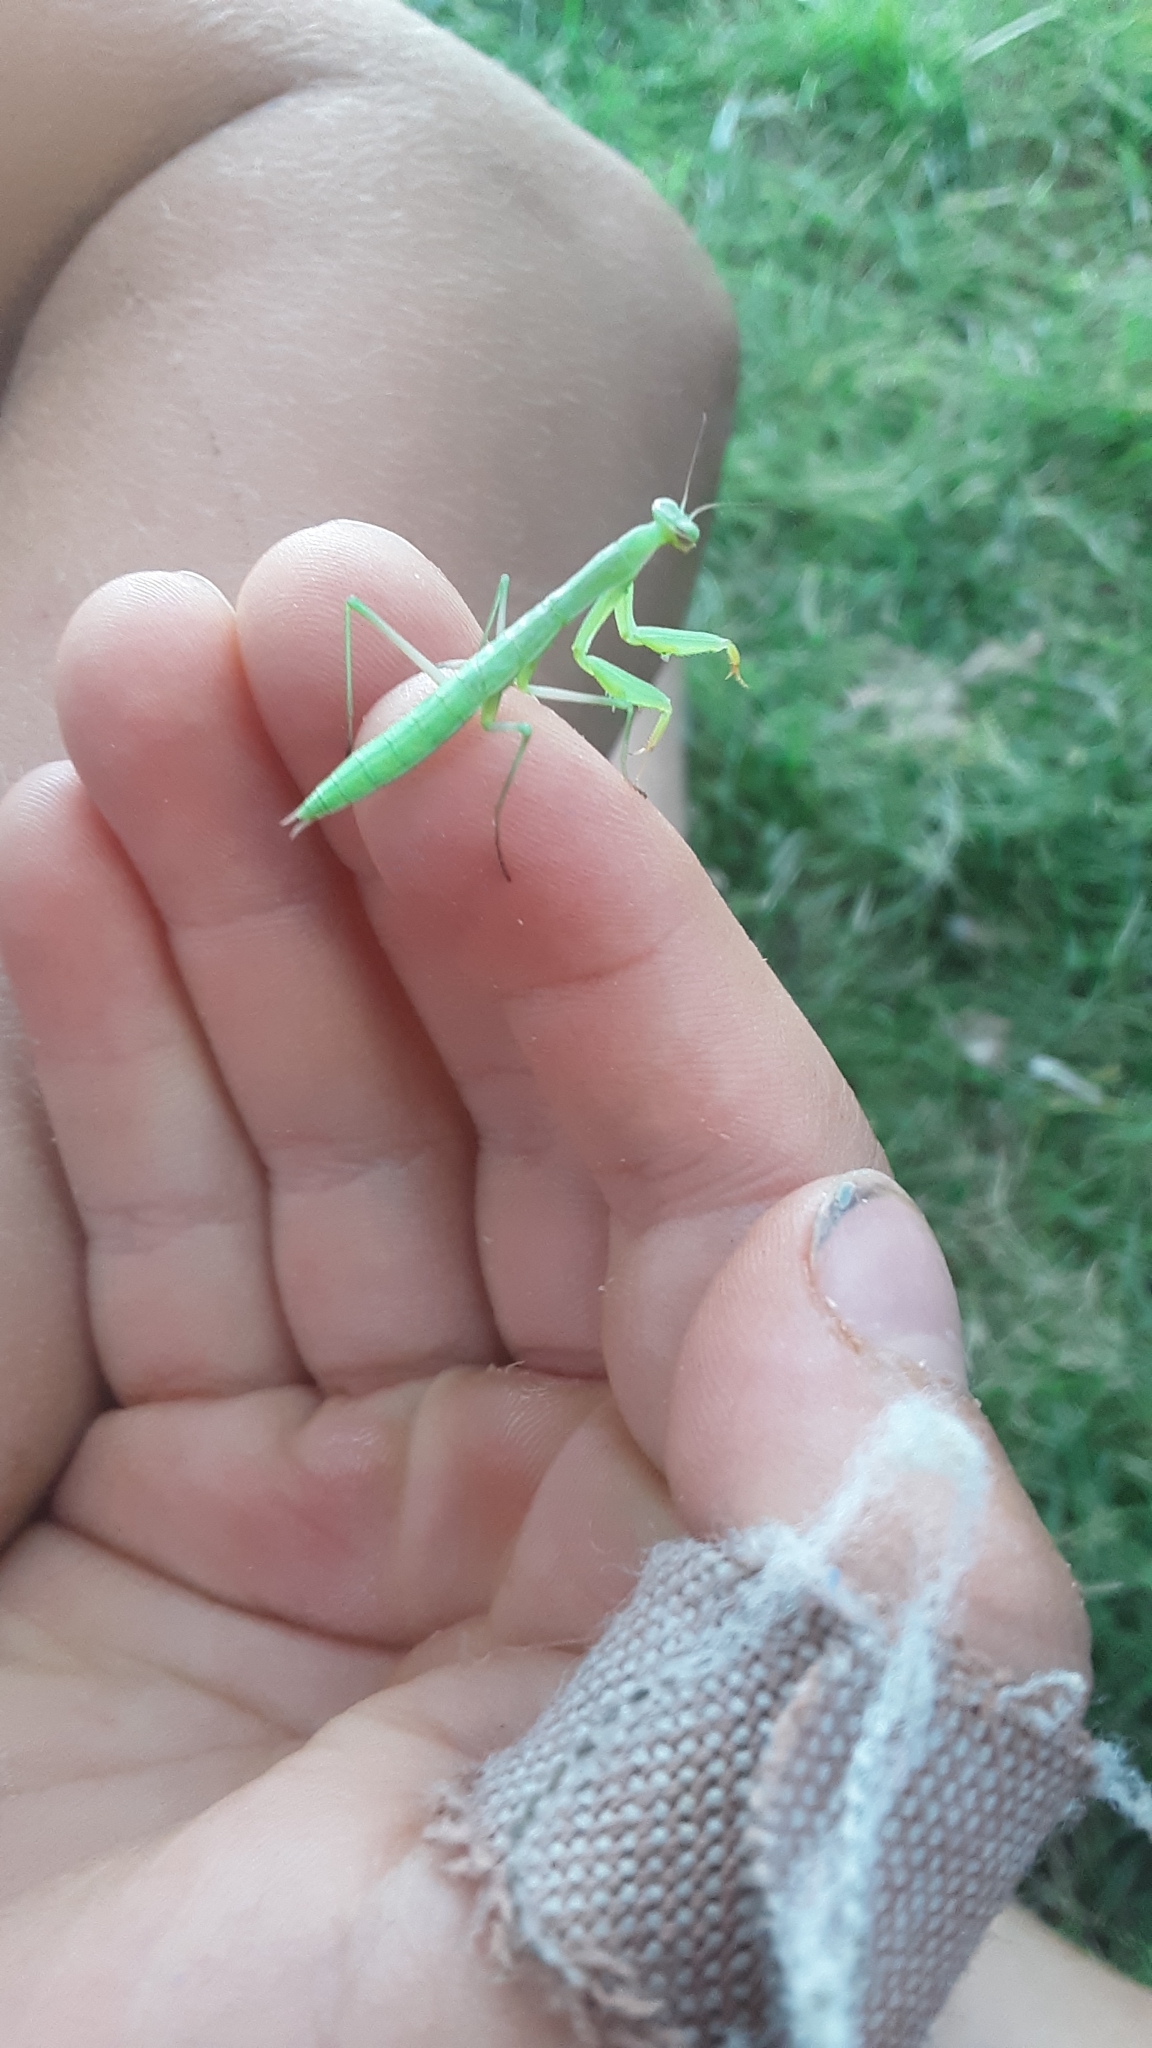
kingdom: Animalia
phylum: Arthropoda
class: Insecta
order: Mantodea
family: Mantidae
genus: Mantis
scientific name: Mantis religiosa
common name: Praying mantis
